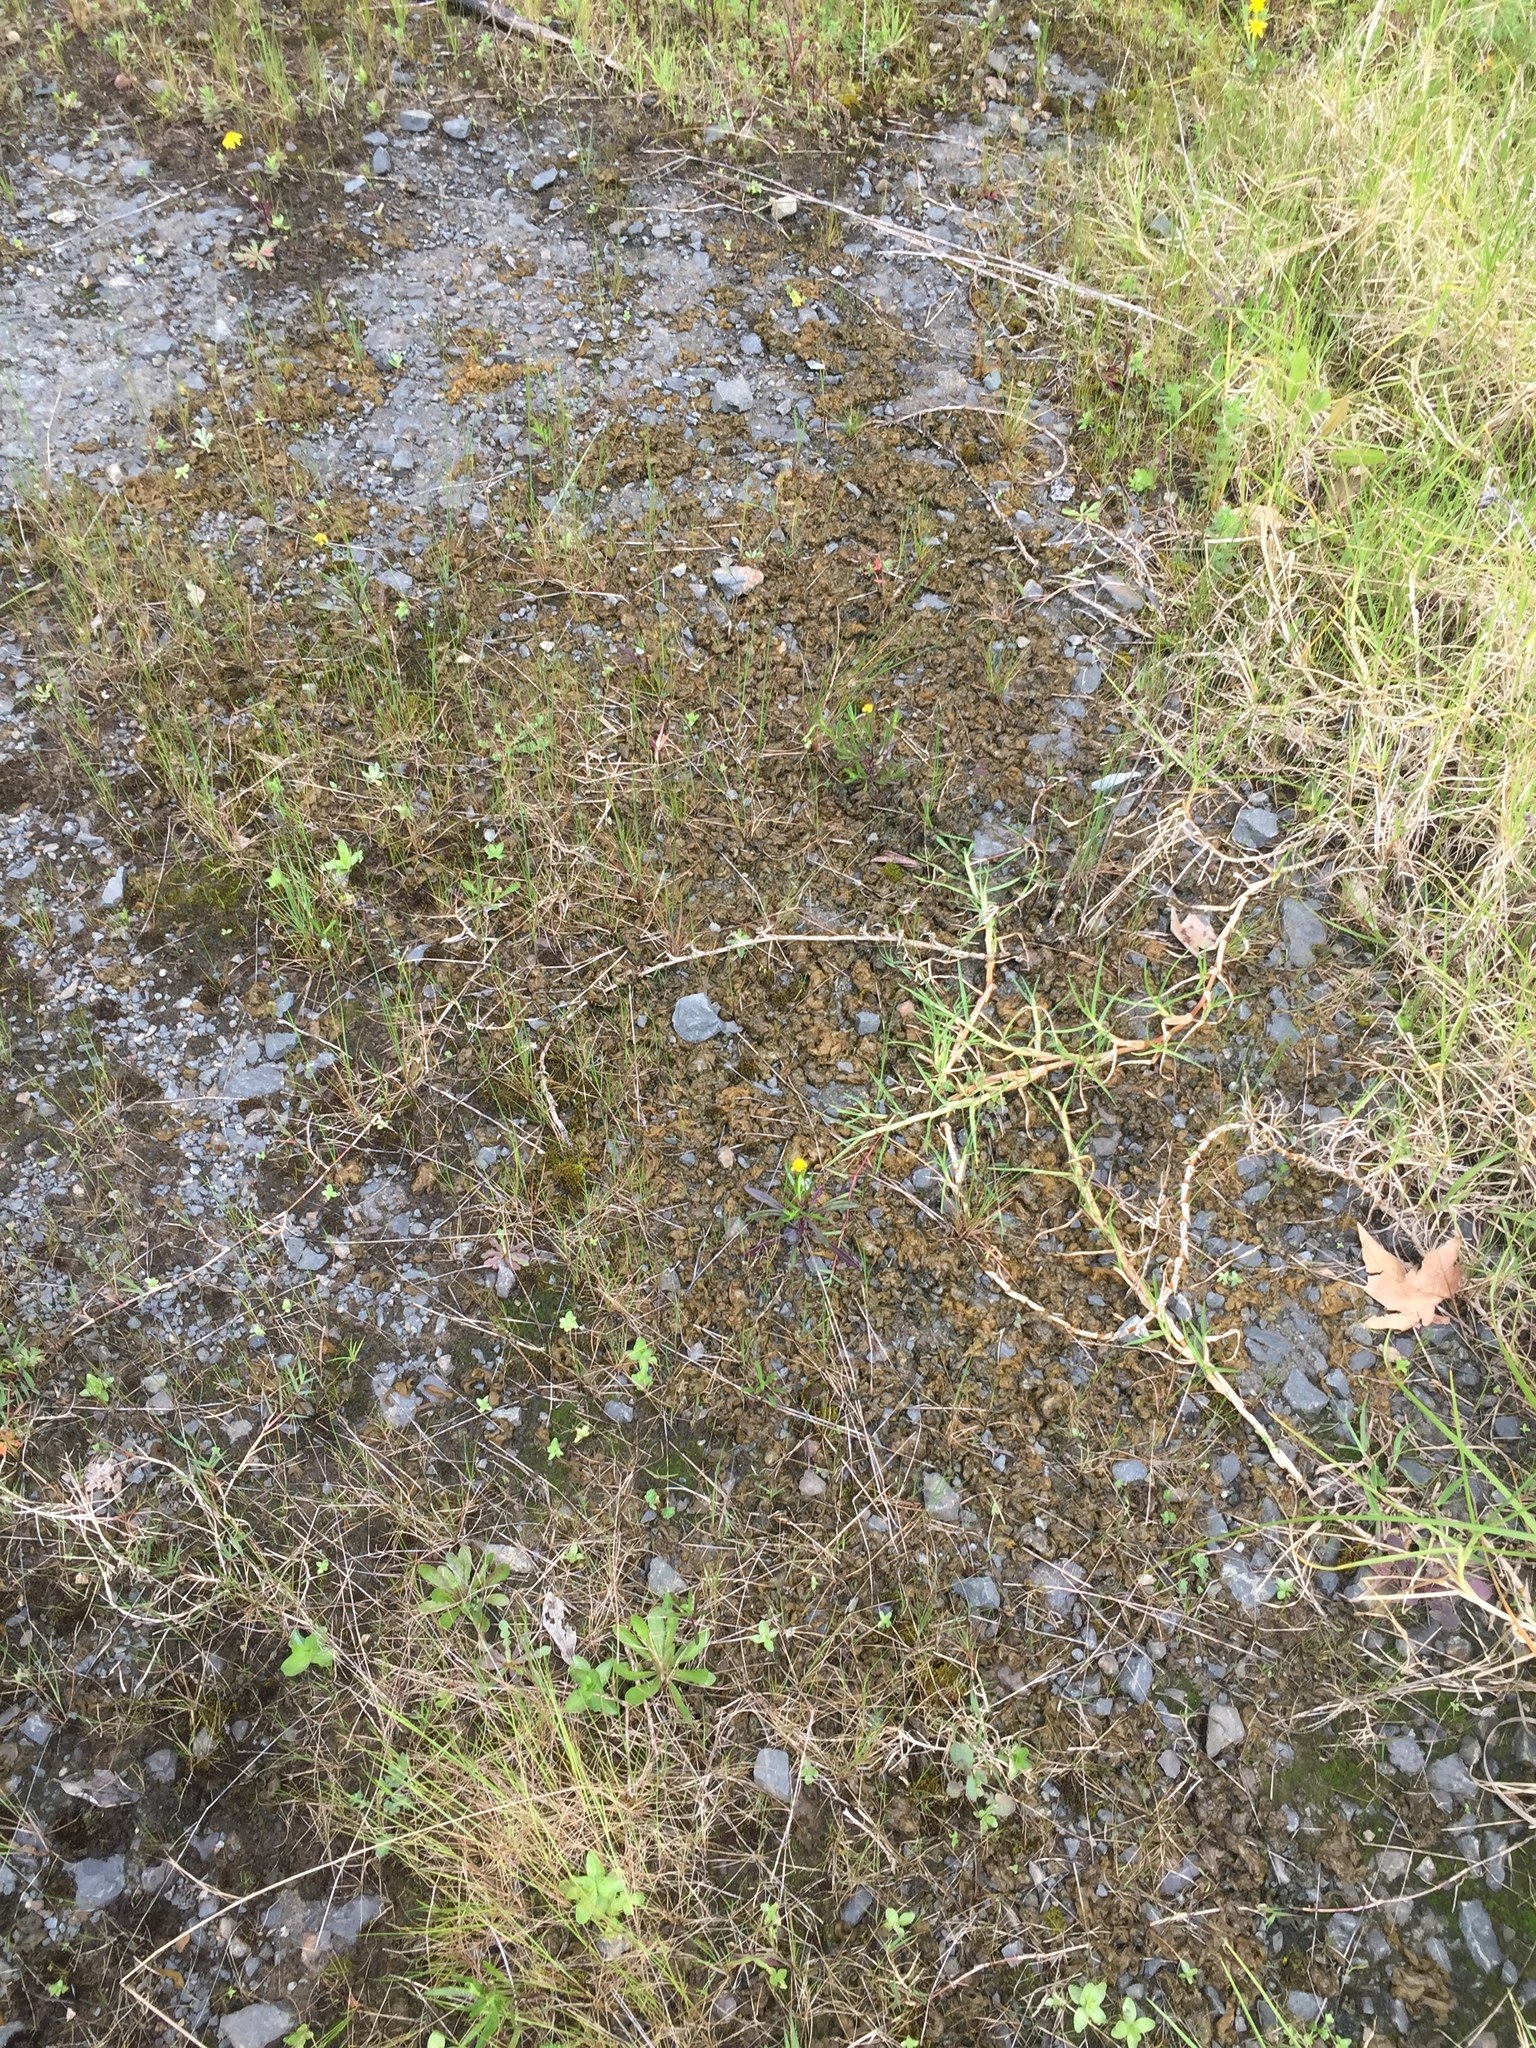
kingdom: Bacteria
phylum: Cyanobacteria
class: Cyanobacteriia
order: Cyanobacteriales
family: Nostocaceae
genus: Nostoc
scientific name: Nostoc commune
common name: Star jelly
